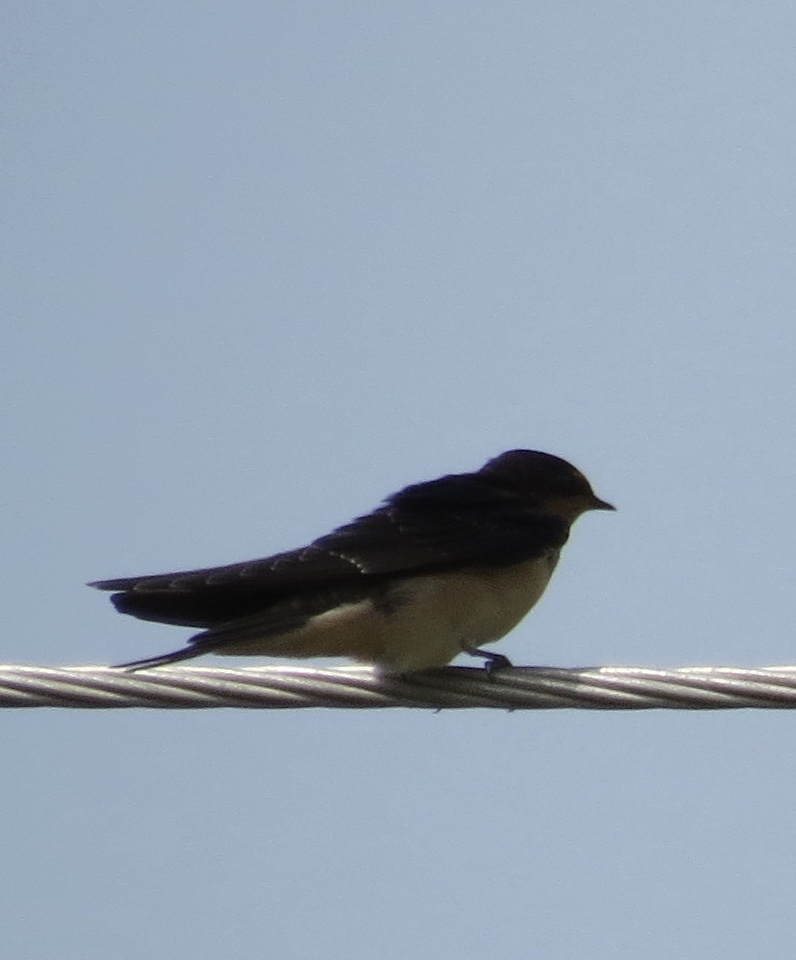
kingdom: Animalia
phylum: Chordata
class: Aves
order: Passeriformes
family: Hirundinidae
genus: Hirundo
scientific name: Hirundo rustica
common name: Barn swallow
